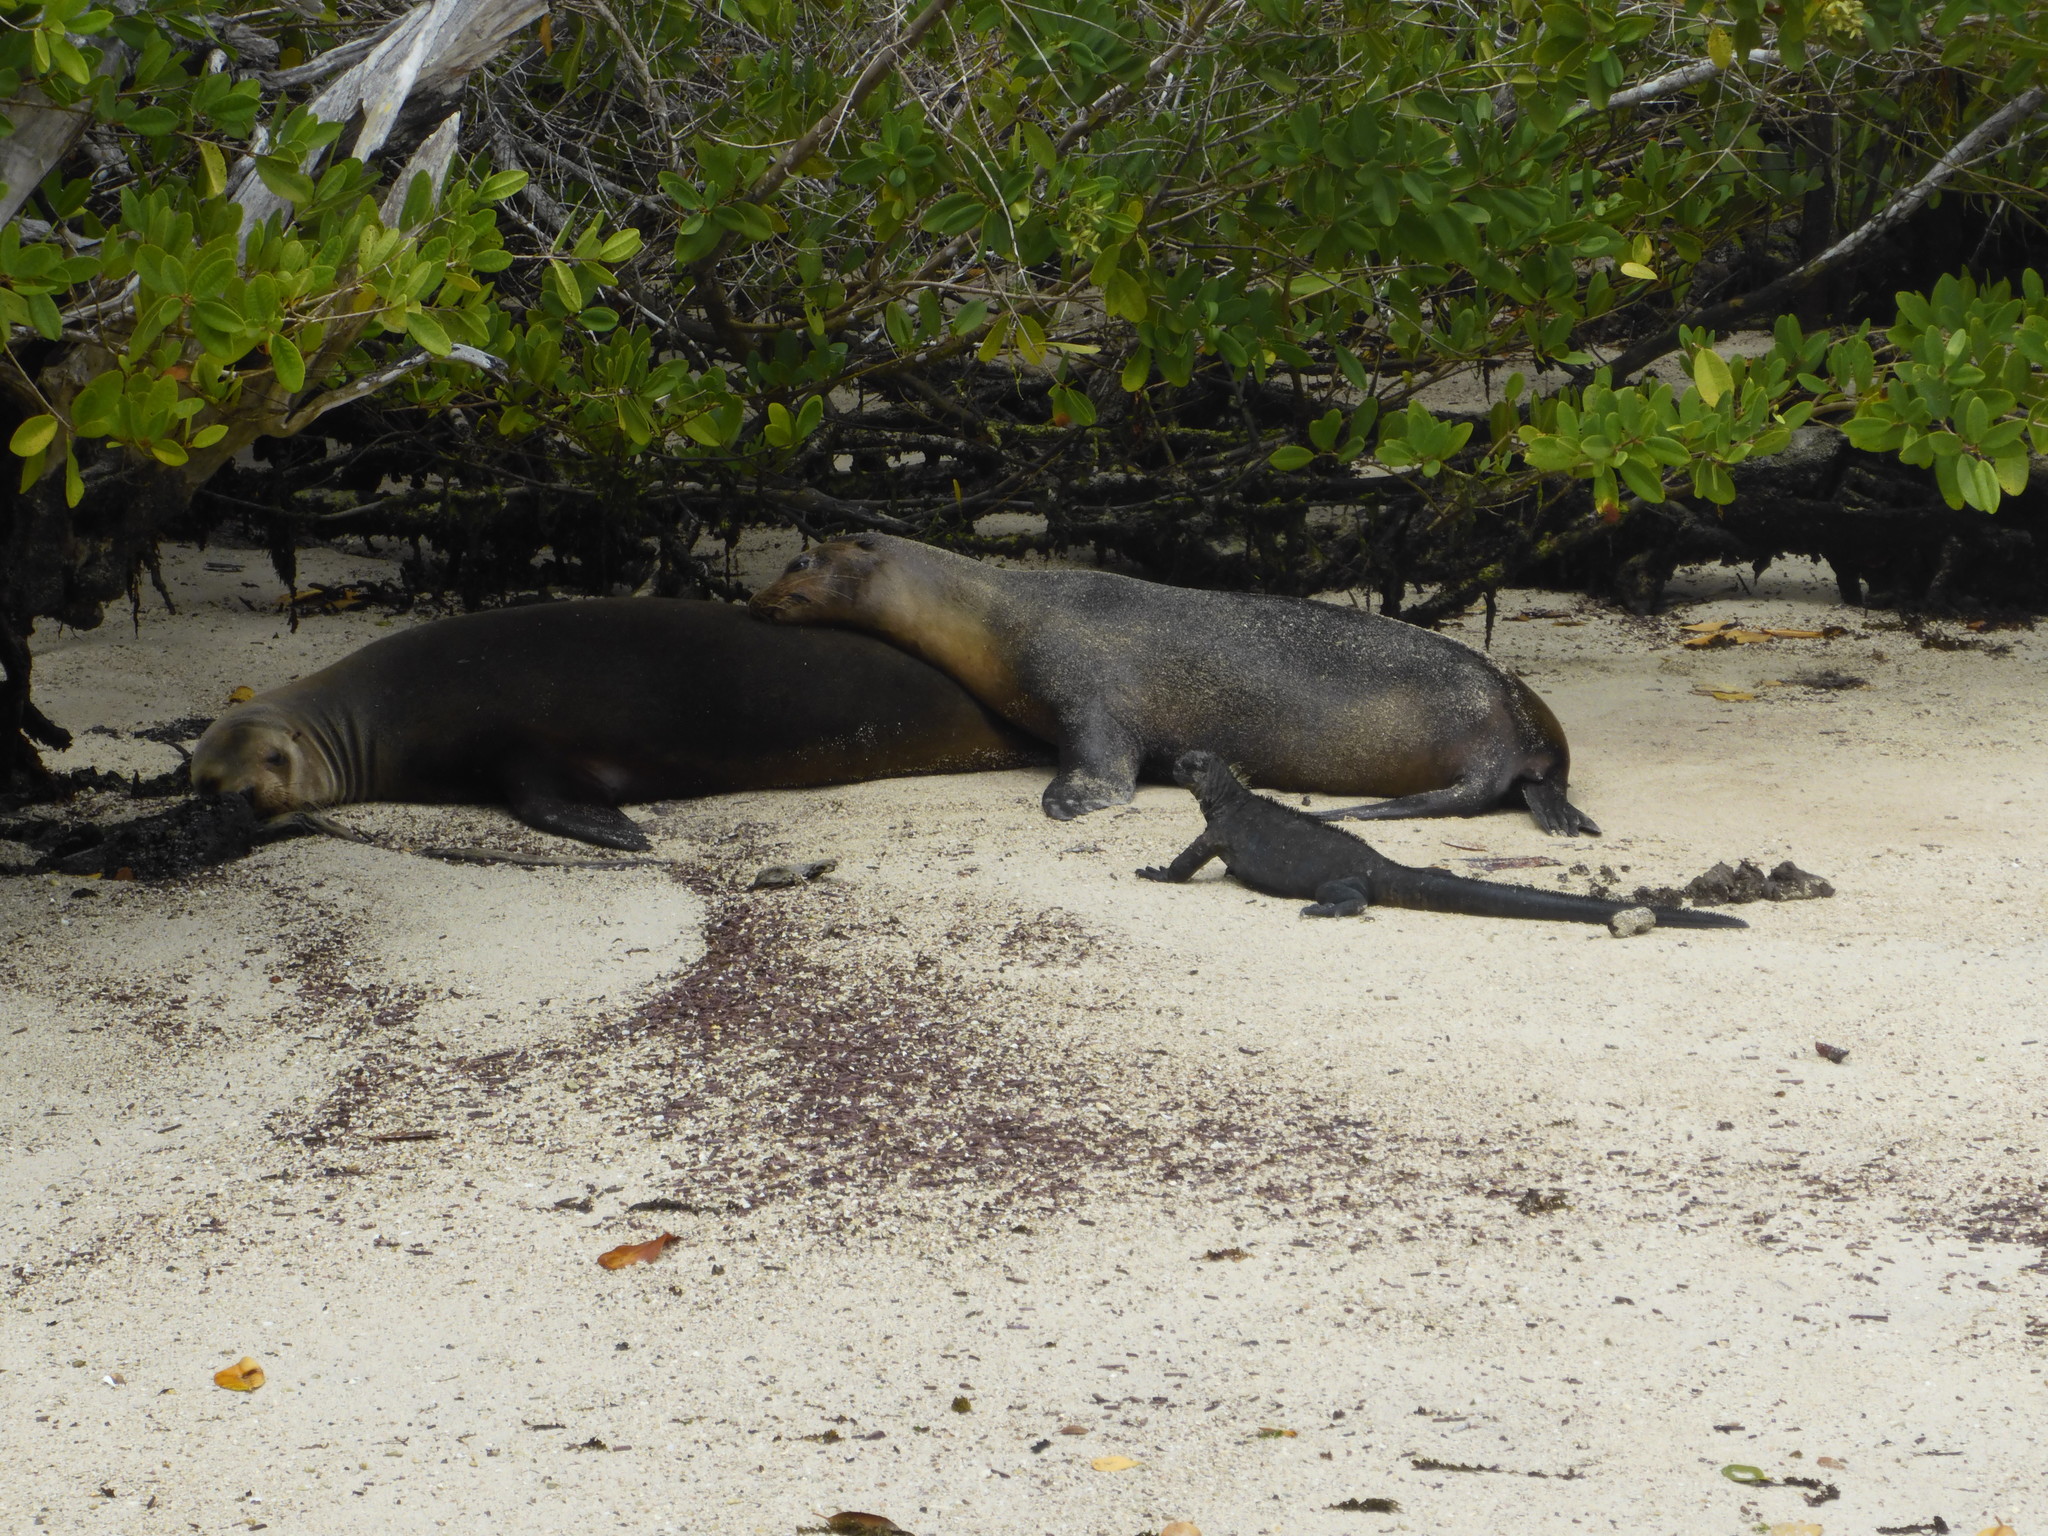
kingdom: Animalia
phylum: Chordata
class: Mammalia
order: Carnivora
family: Otariidae
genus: Zalophus
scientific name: Zalophus wollebaeki
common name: Galapagos sea lion
